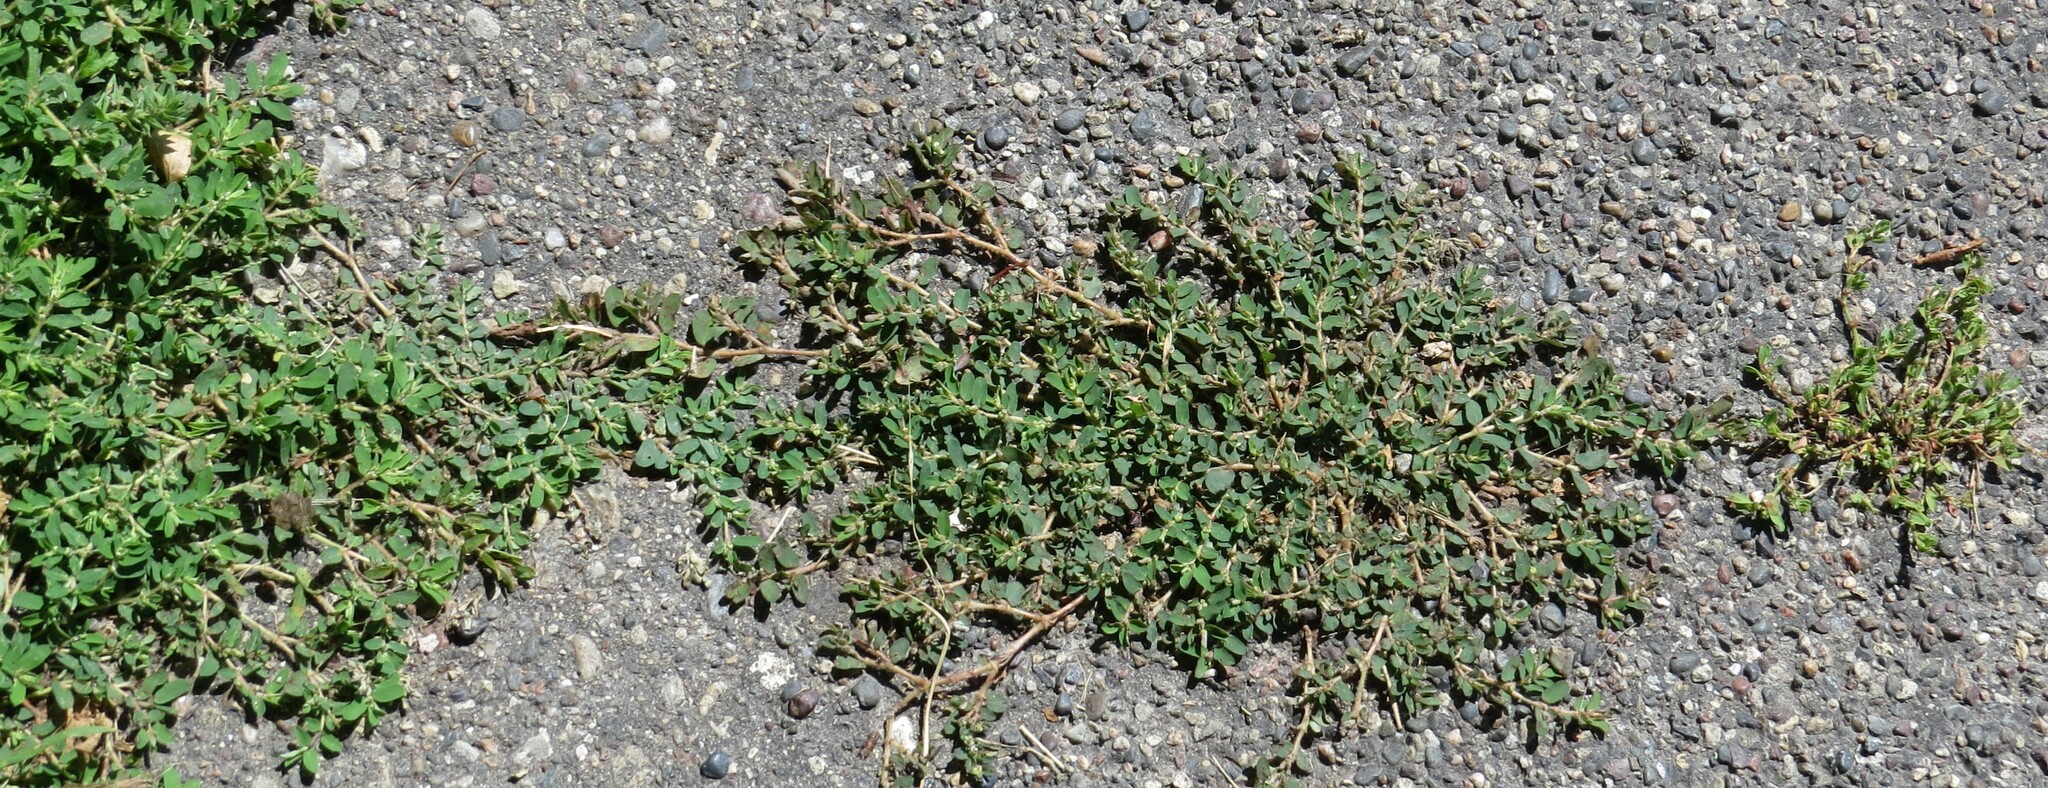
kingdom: Plantae
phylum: Tracheophyta
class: Magnoliopsida
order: Malpighiales
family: Euphorbiaceae
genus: Euphorbia
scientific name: Euphorbia maculata
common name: Spotted spurge
